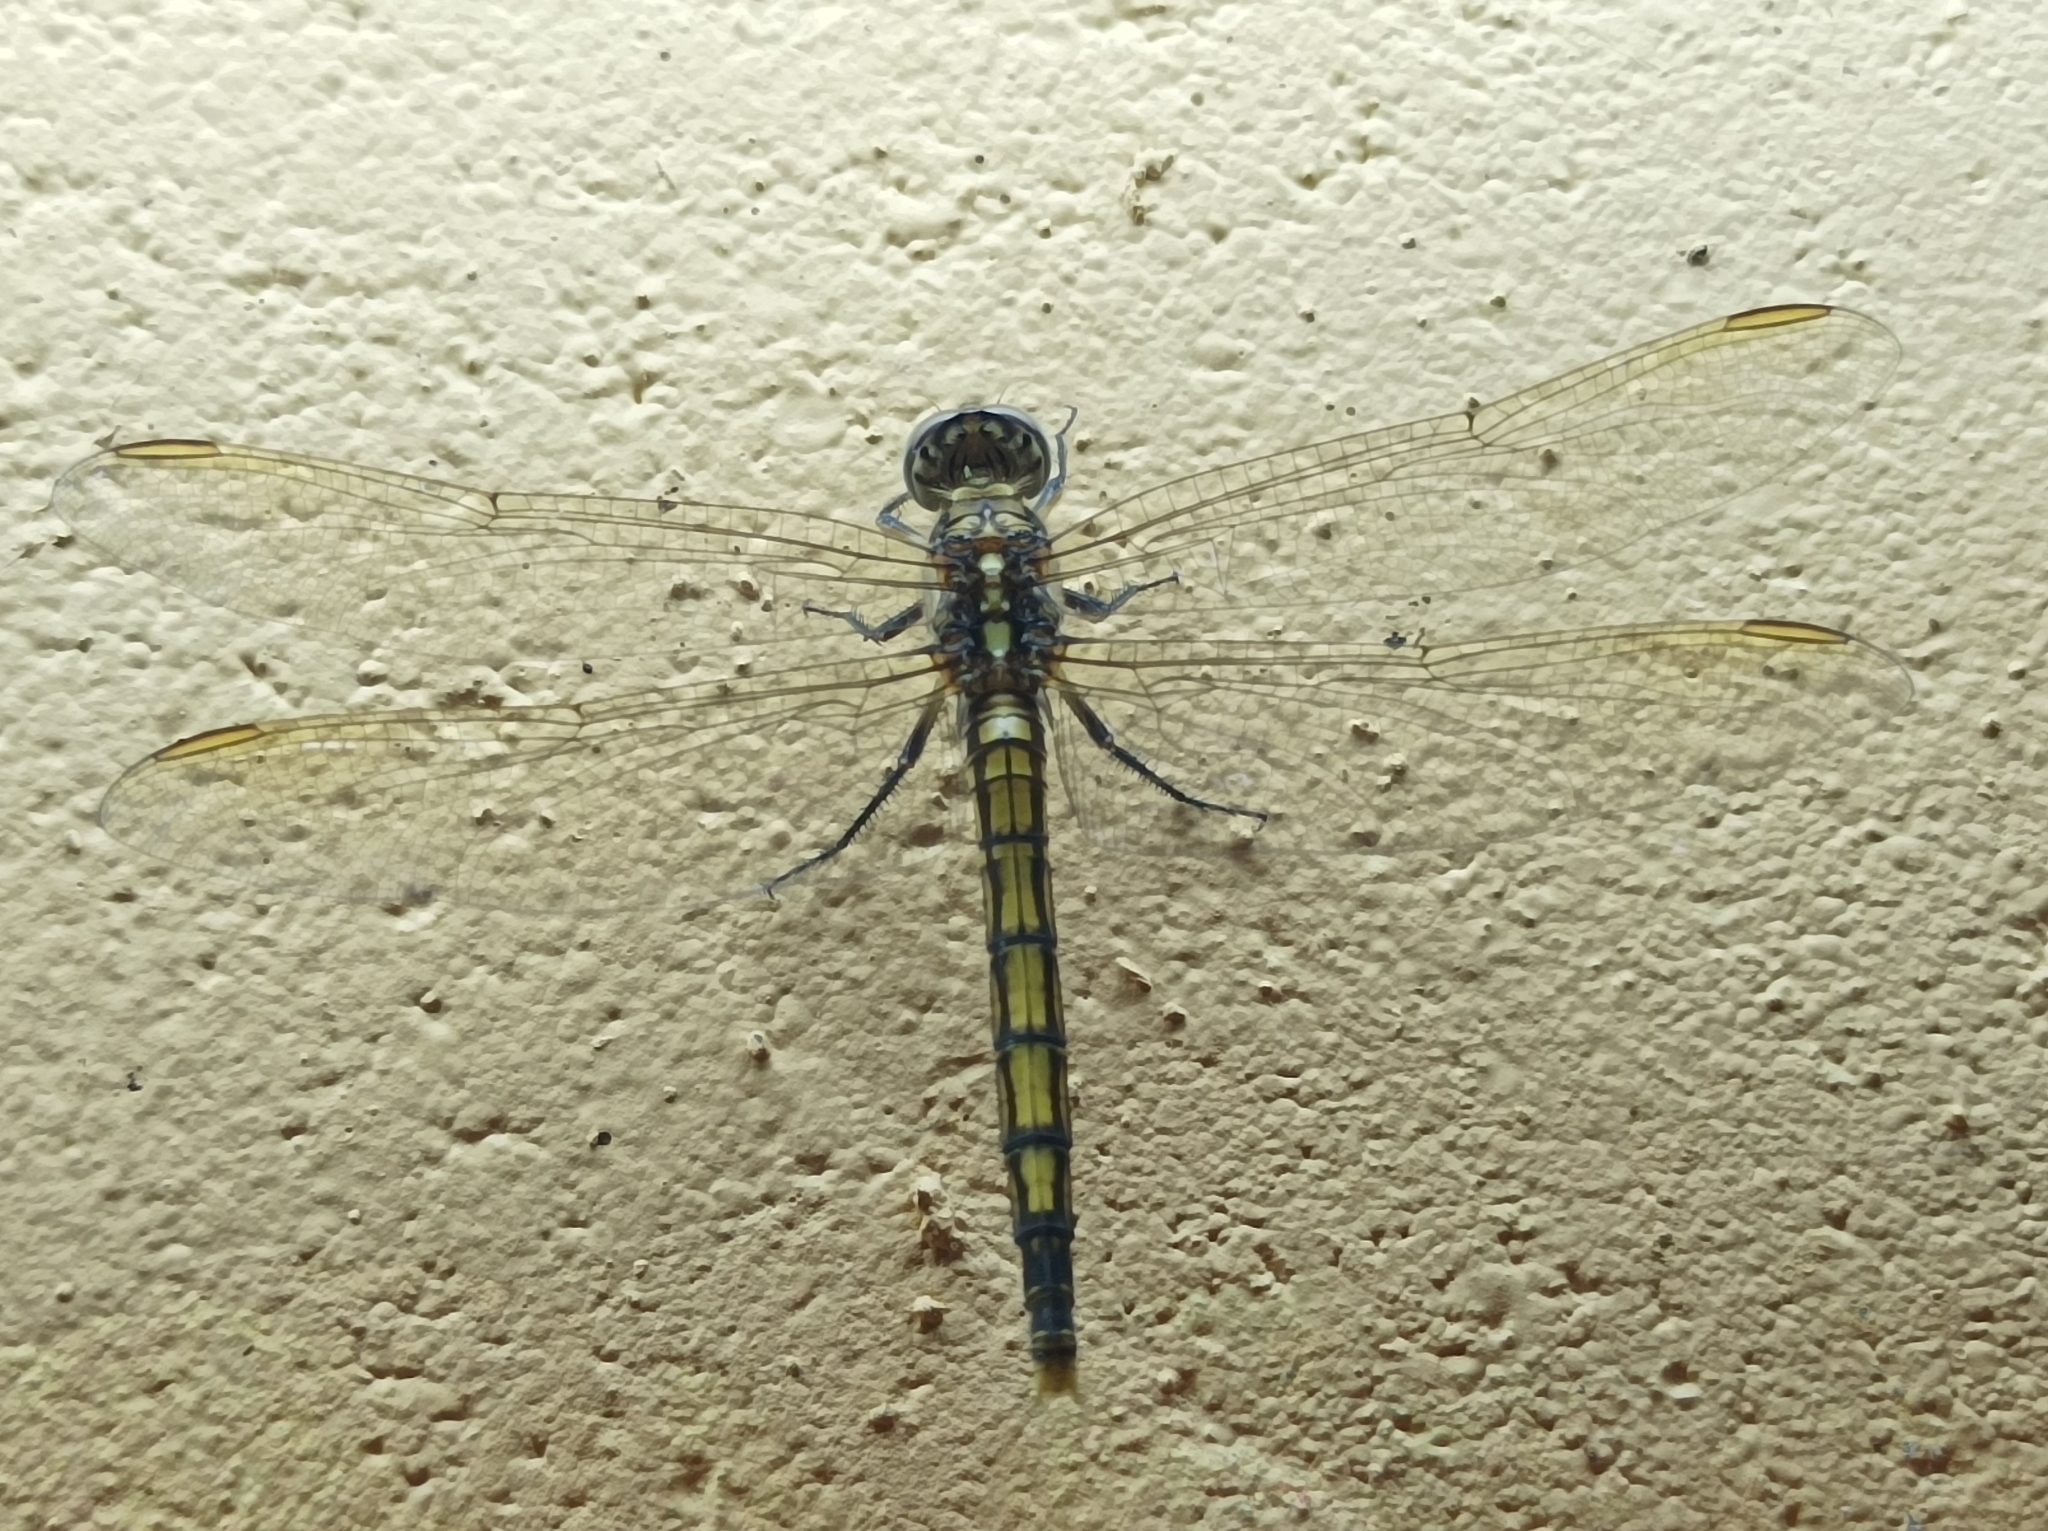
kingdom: Animalia
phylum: Arthropoda
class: Insecta
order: Odonata
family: Libellulidae
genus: Orthetrum
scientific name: Orthetrum caledonicum
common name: Blue skimmer
